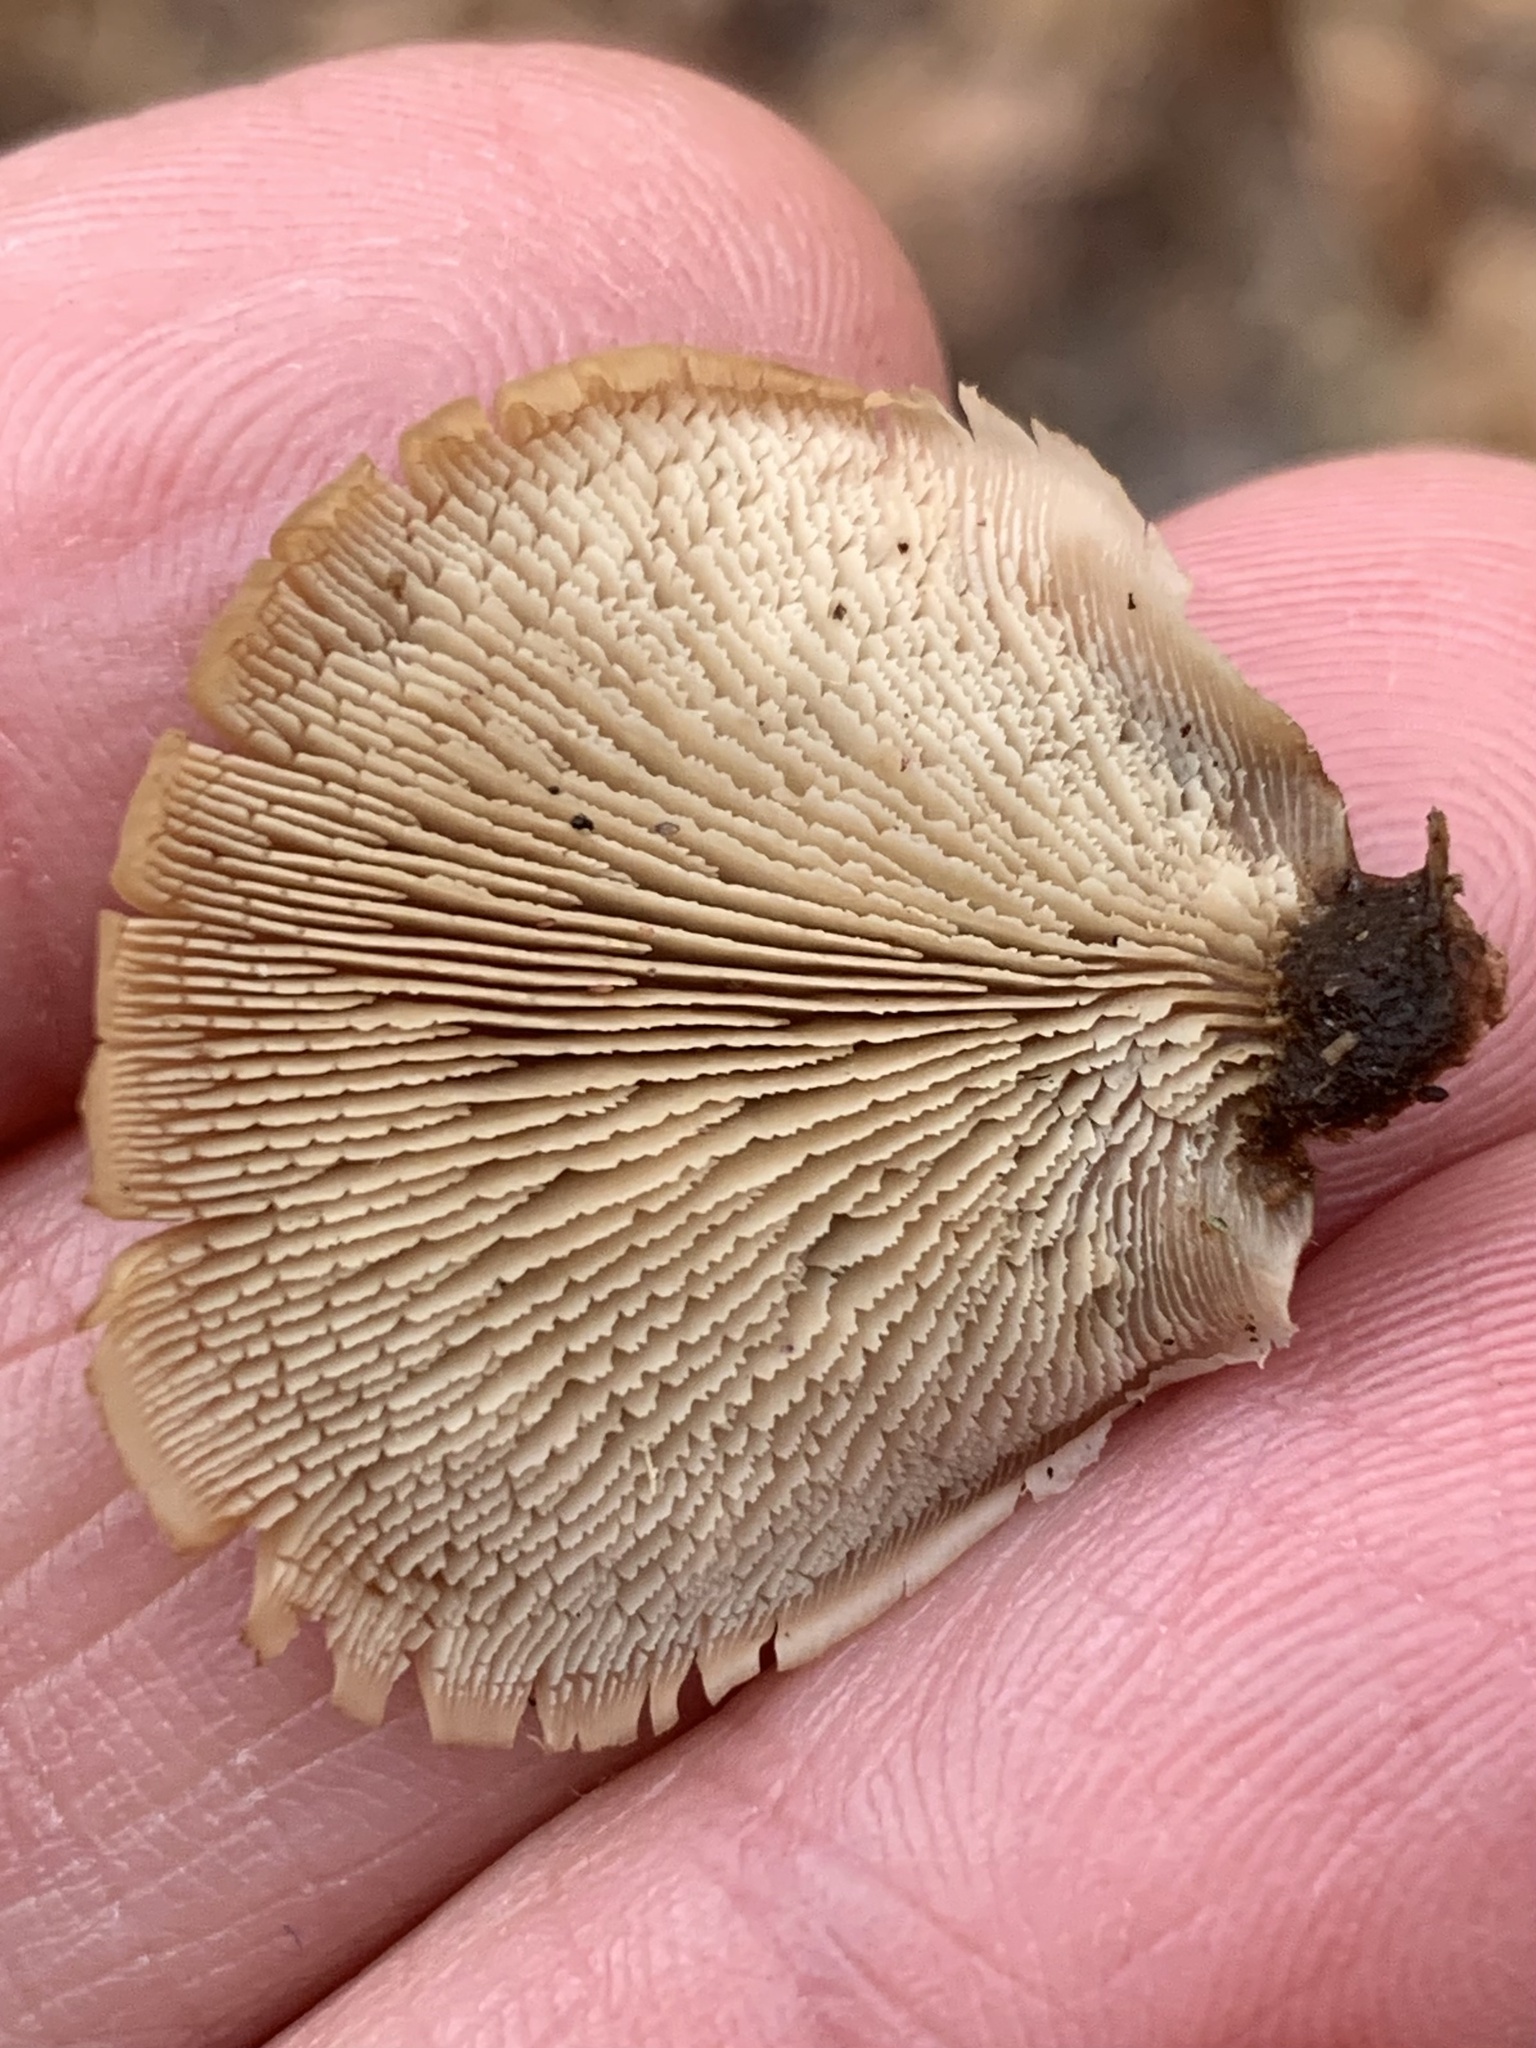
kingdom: Fungi
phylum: Basidiomycota
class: Agaricomycetes
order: Russulales
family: Auriscalpiaceae
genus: Lentinellus
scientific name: Lentinellus ursinus
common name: Bear lentinus
